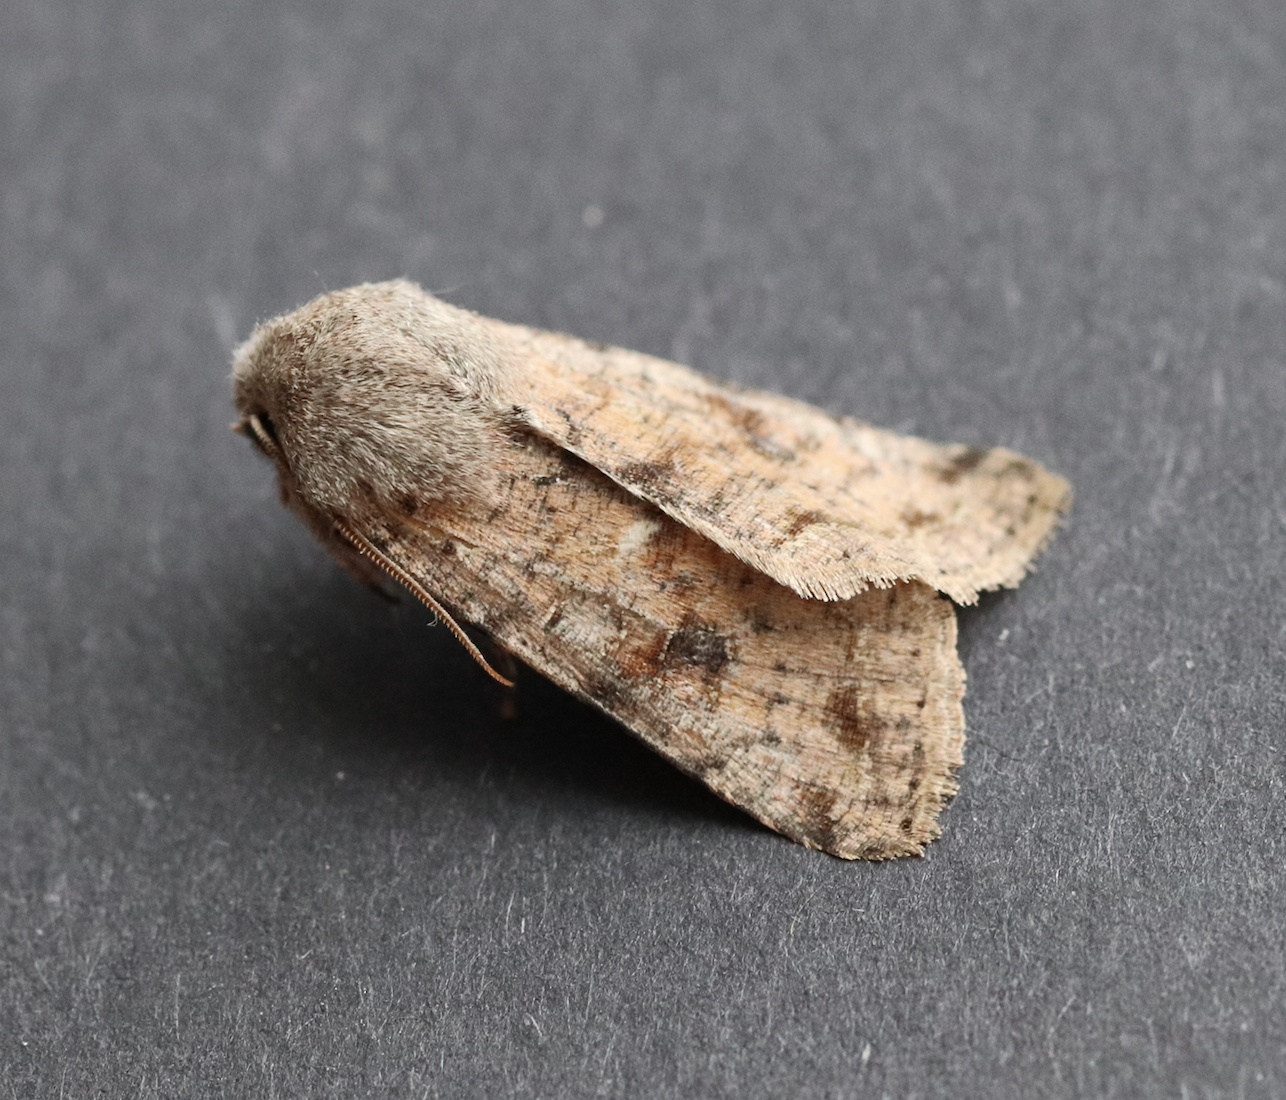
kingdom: Animalia
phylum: Arthropoda
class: Insecta
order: Lepidoptera
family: Noctuidae
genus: Orthosia
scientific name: Orthosia incerta
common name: Clouded drab
